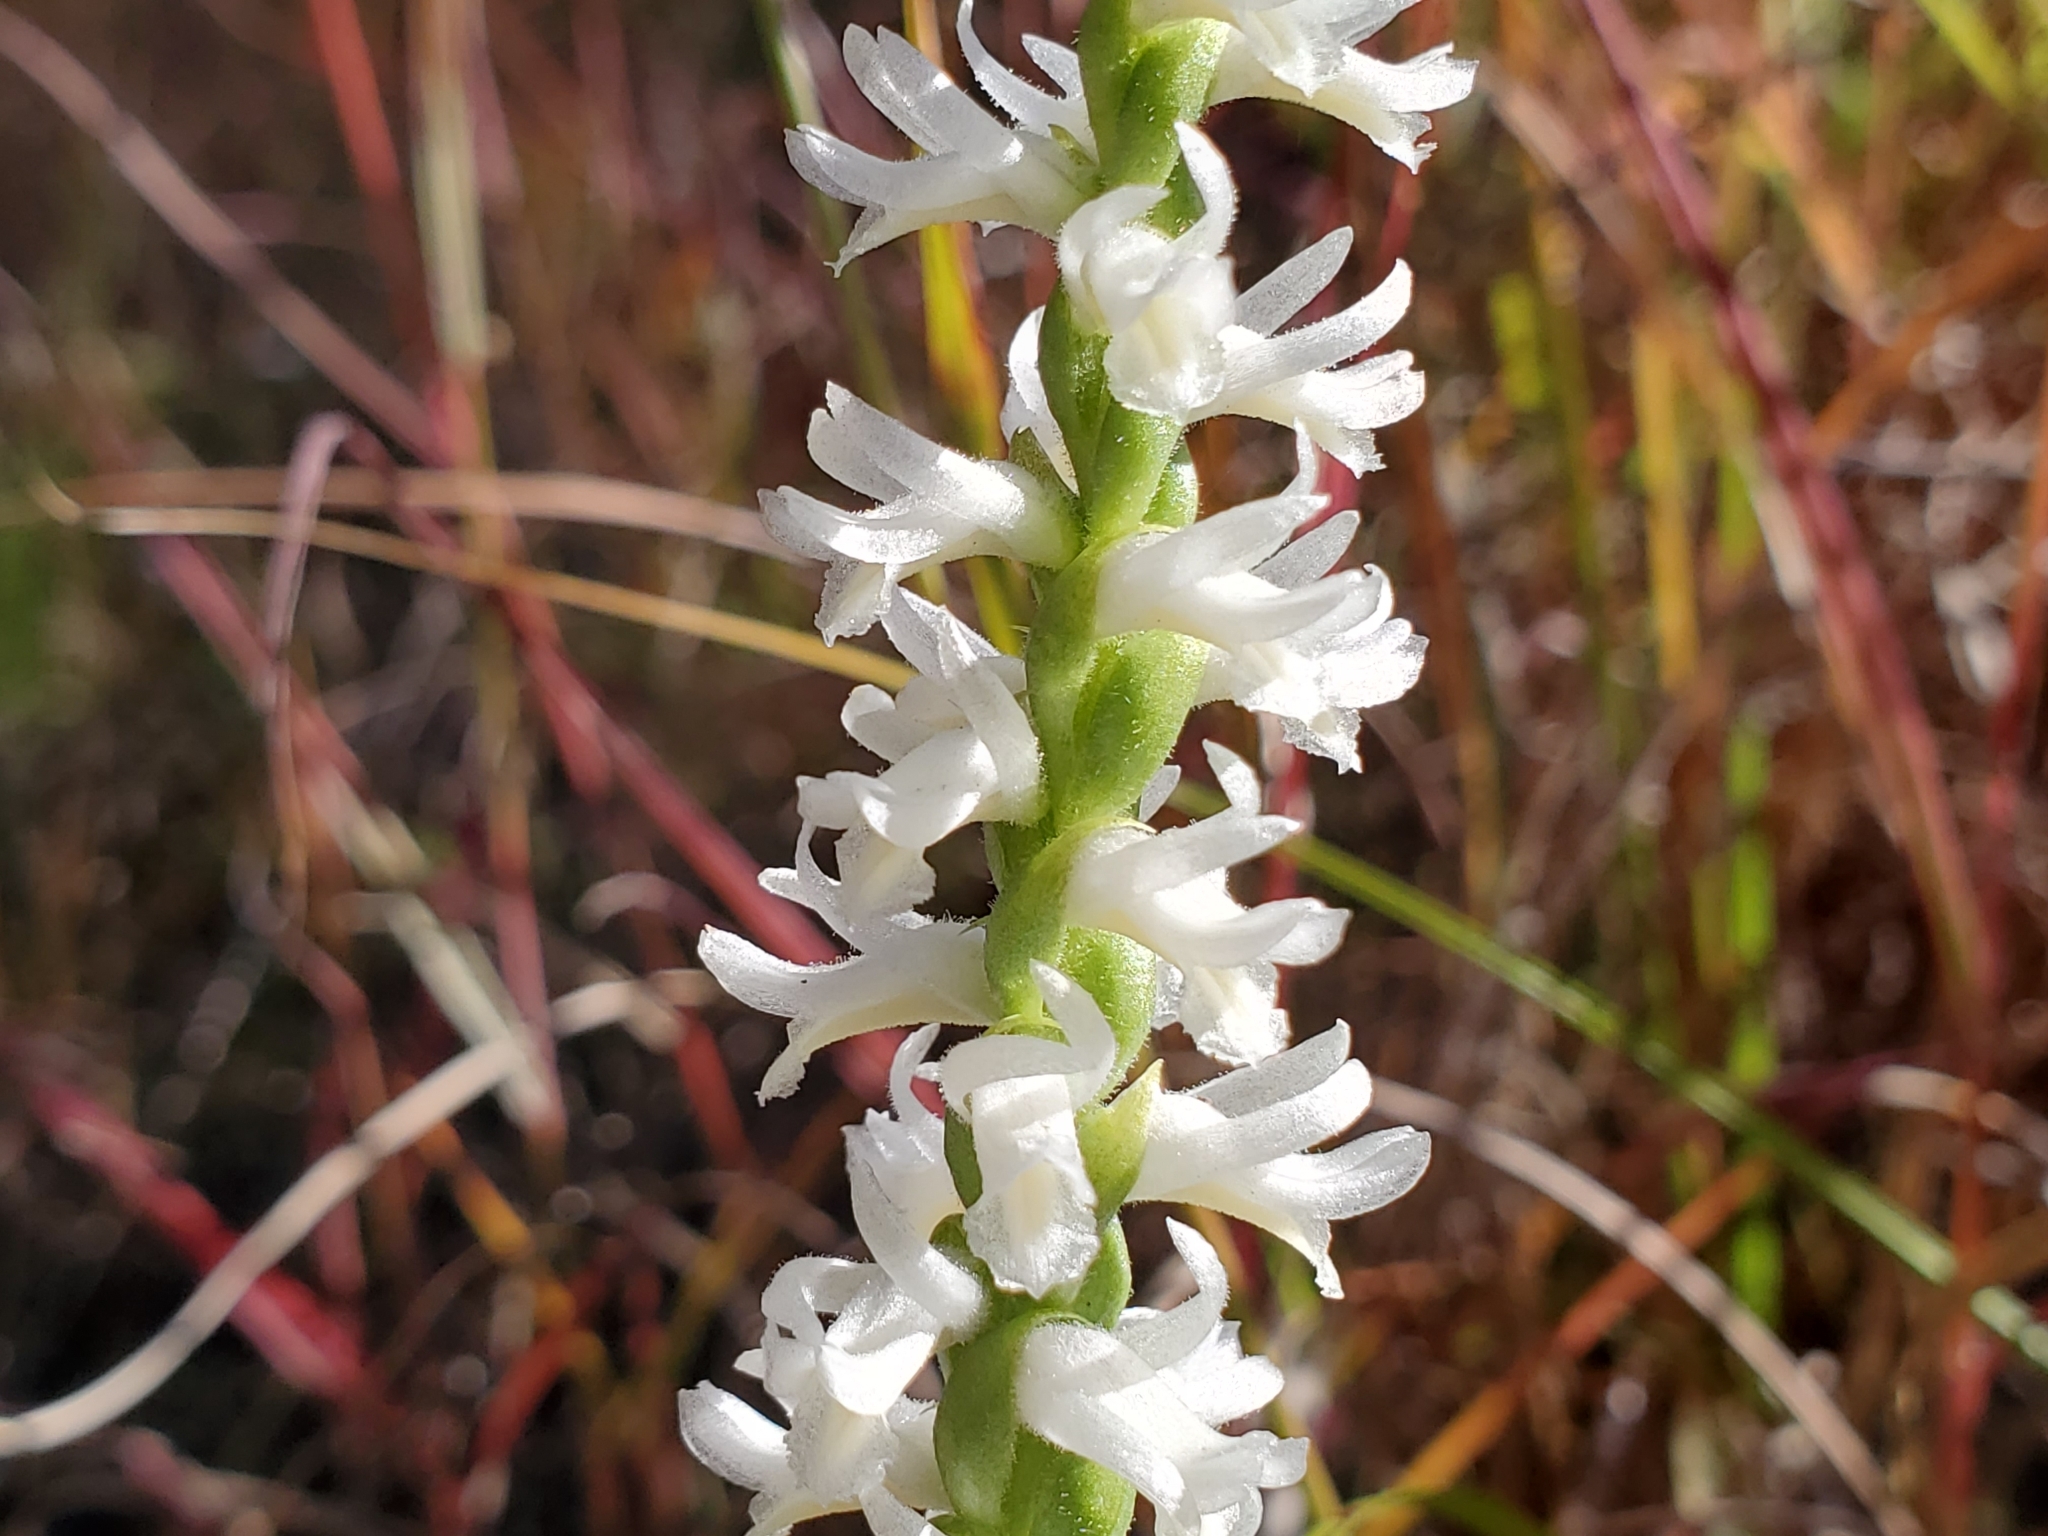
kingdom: Plantae
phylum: Tracheophyta
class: Liliopsida
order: Asparagales
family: Orchidaceae
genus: Spiranthes
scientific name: Spiranthes magnicamporum
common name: Great plains ladies'-tresses
